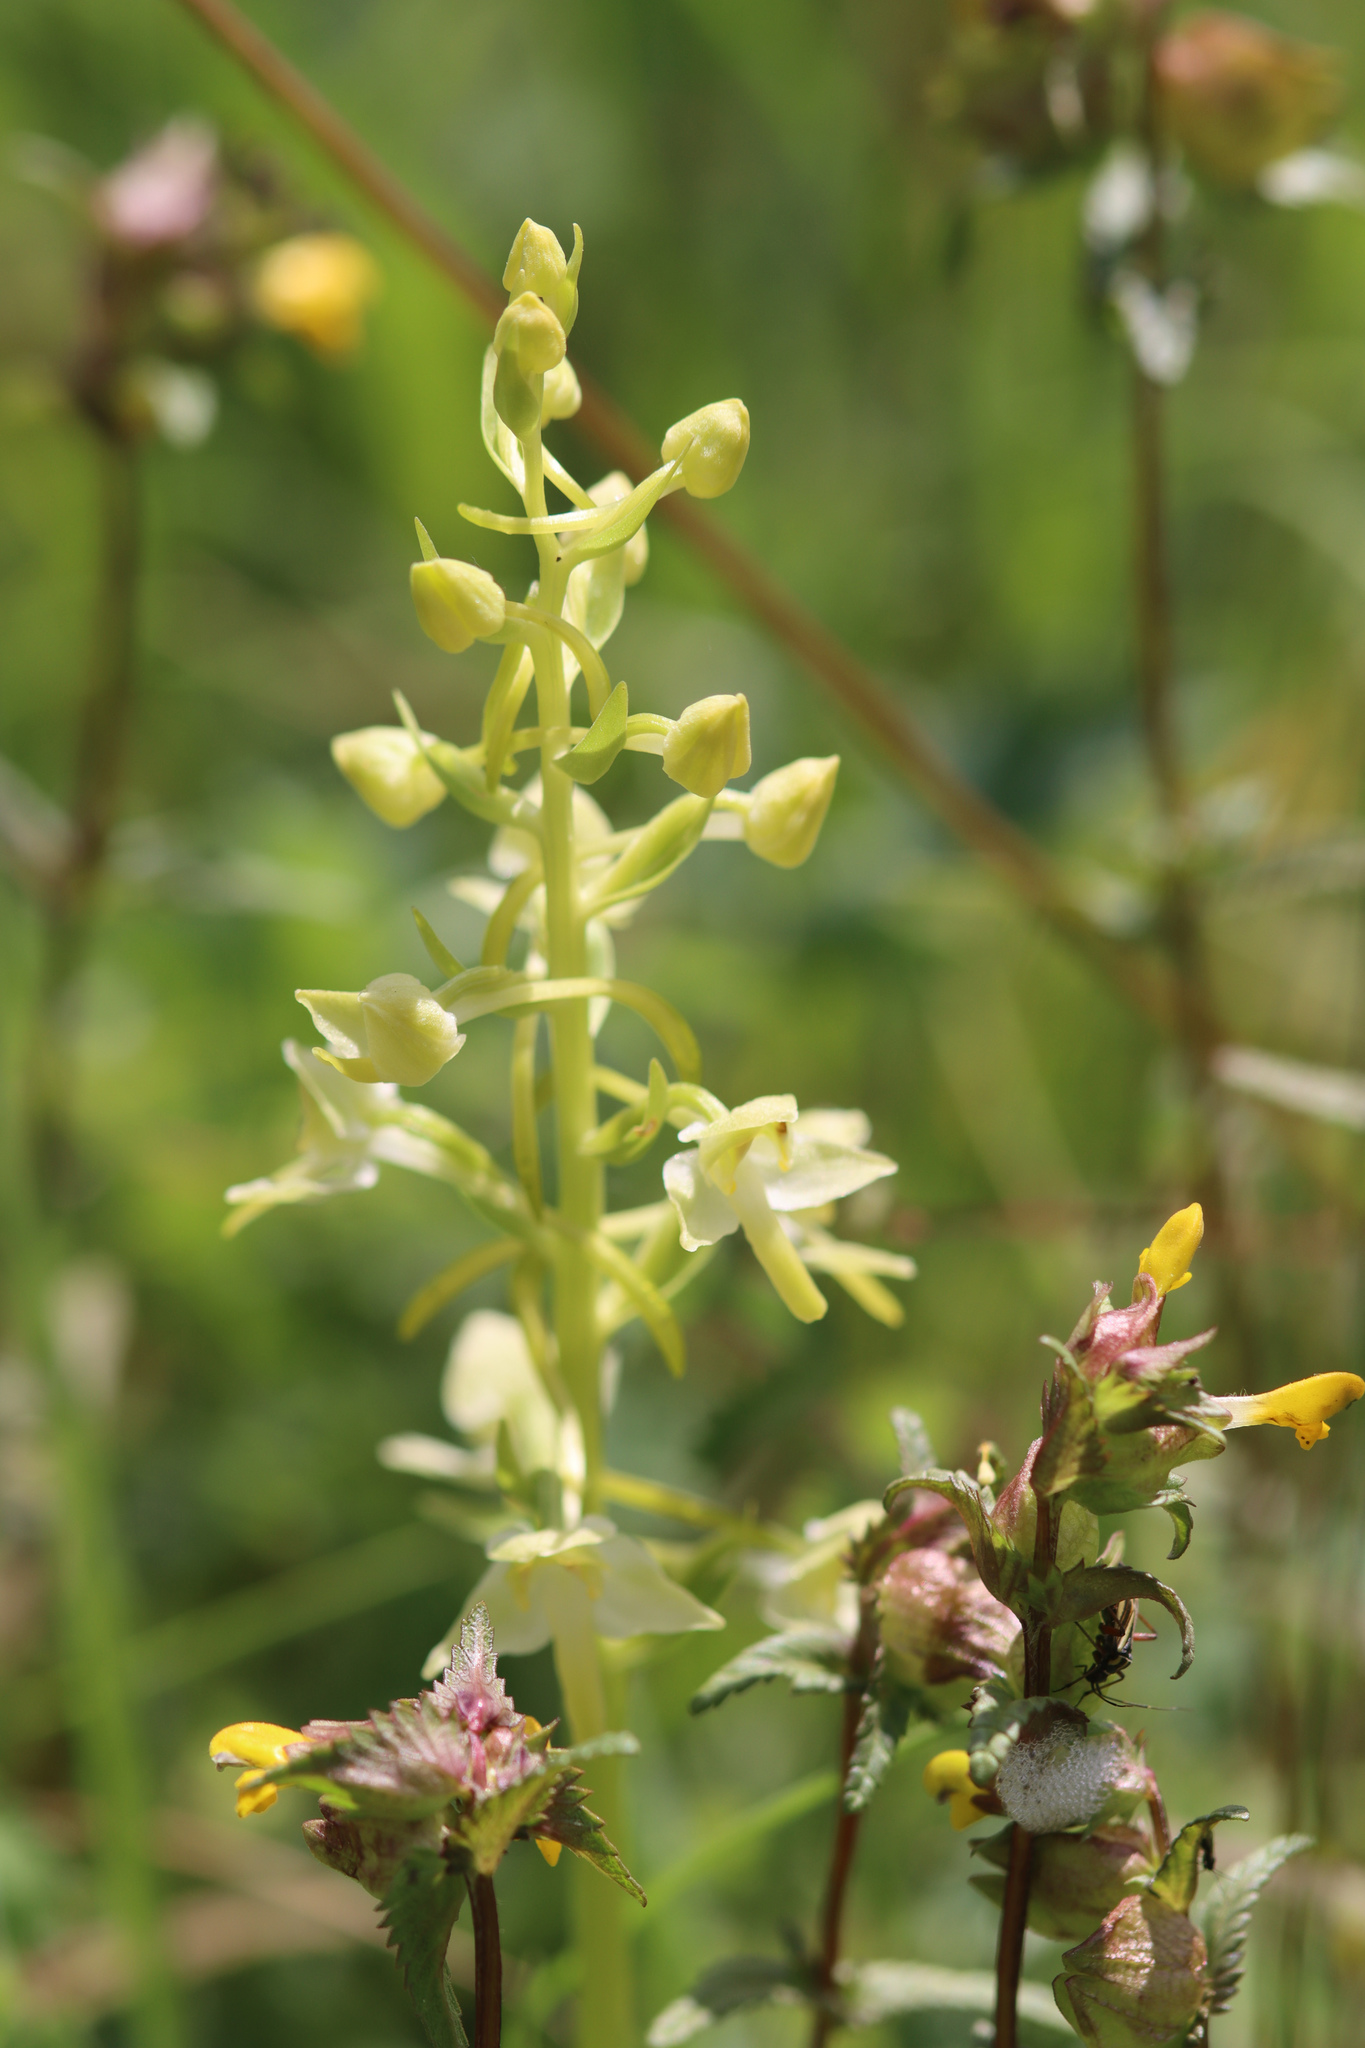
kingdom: Plantae
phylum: Tracheophyta
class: Liliopsida
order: Asparagales
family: Orchidaceae
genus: Platanthera
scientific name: Platanthera chlorantha
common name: Greater butterfly-orchid
